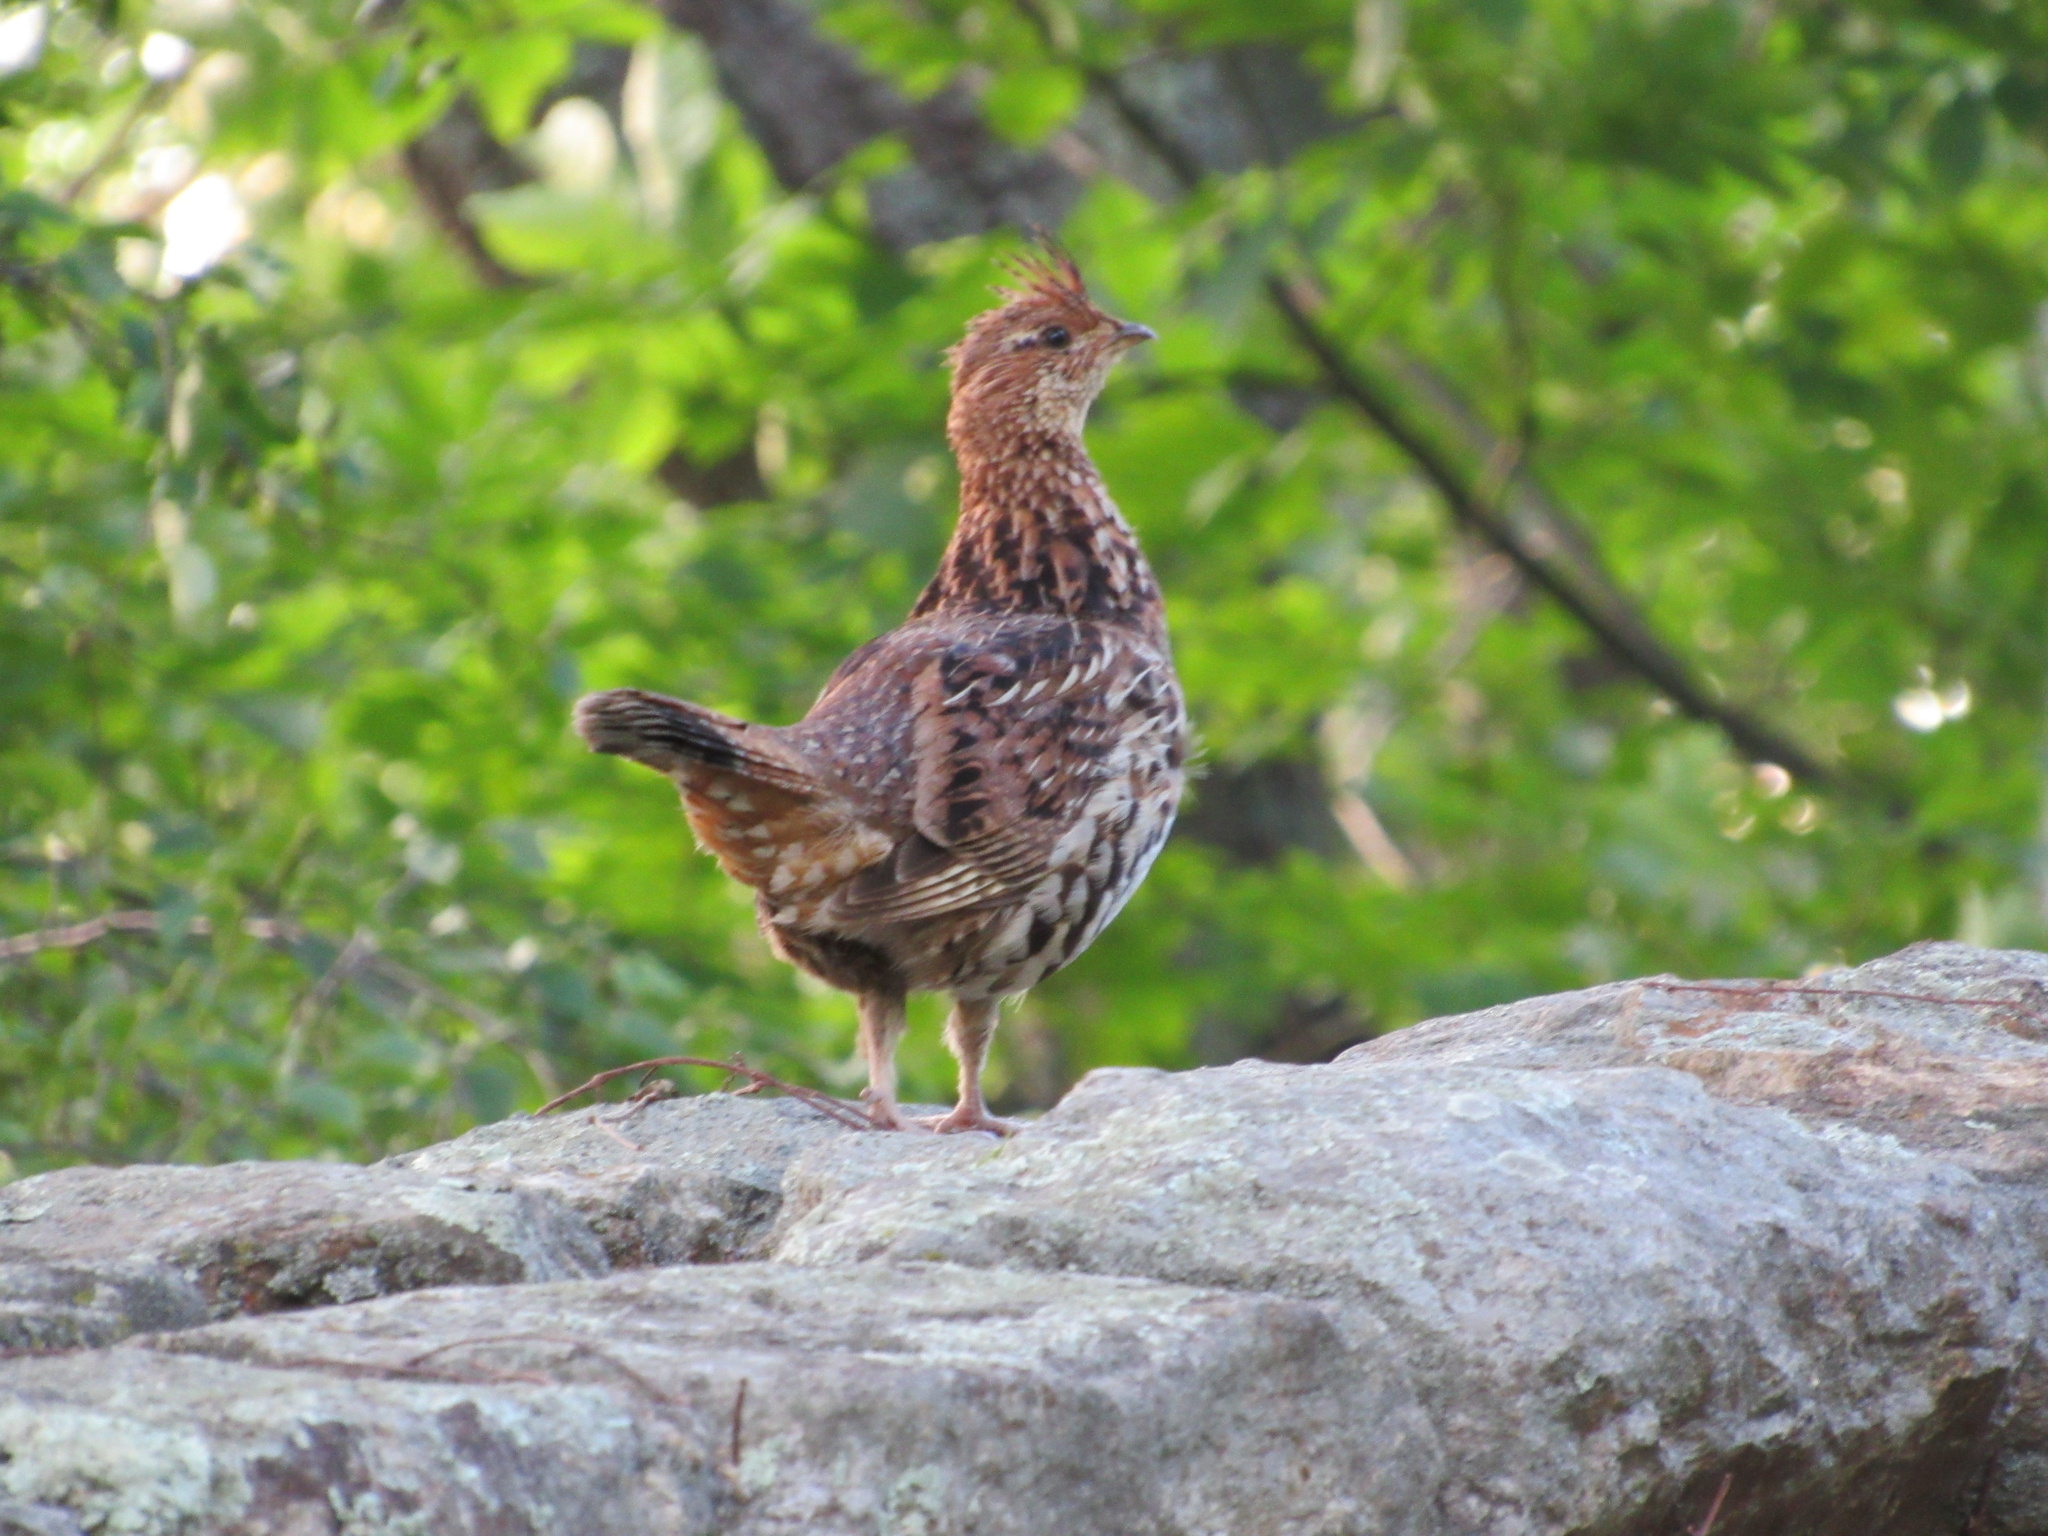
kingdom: Animalia
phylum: Chordata
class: Aves
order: Galliformes
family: Phasianidae
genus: Bonasa
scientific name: Bonasa umbellus
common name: Ruffed grouse
